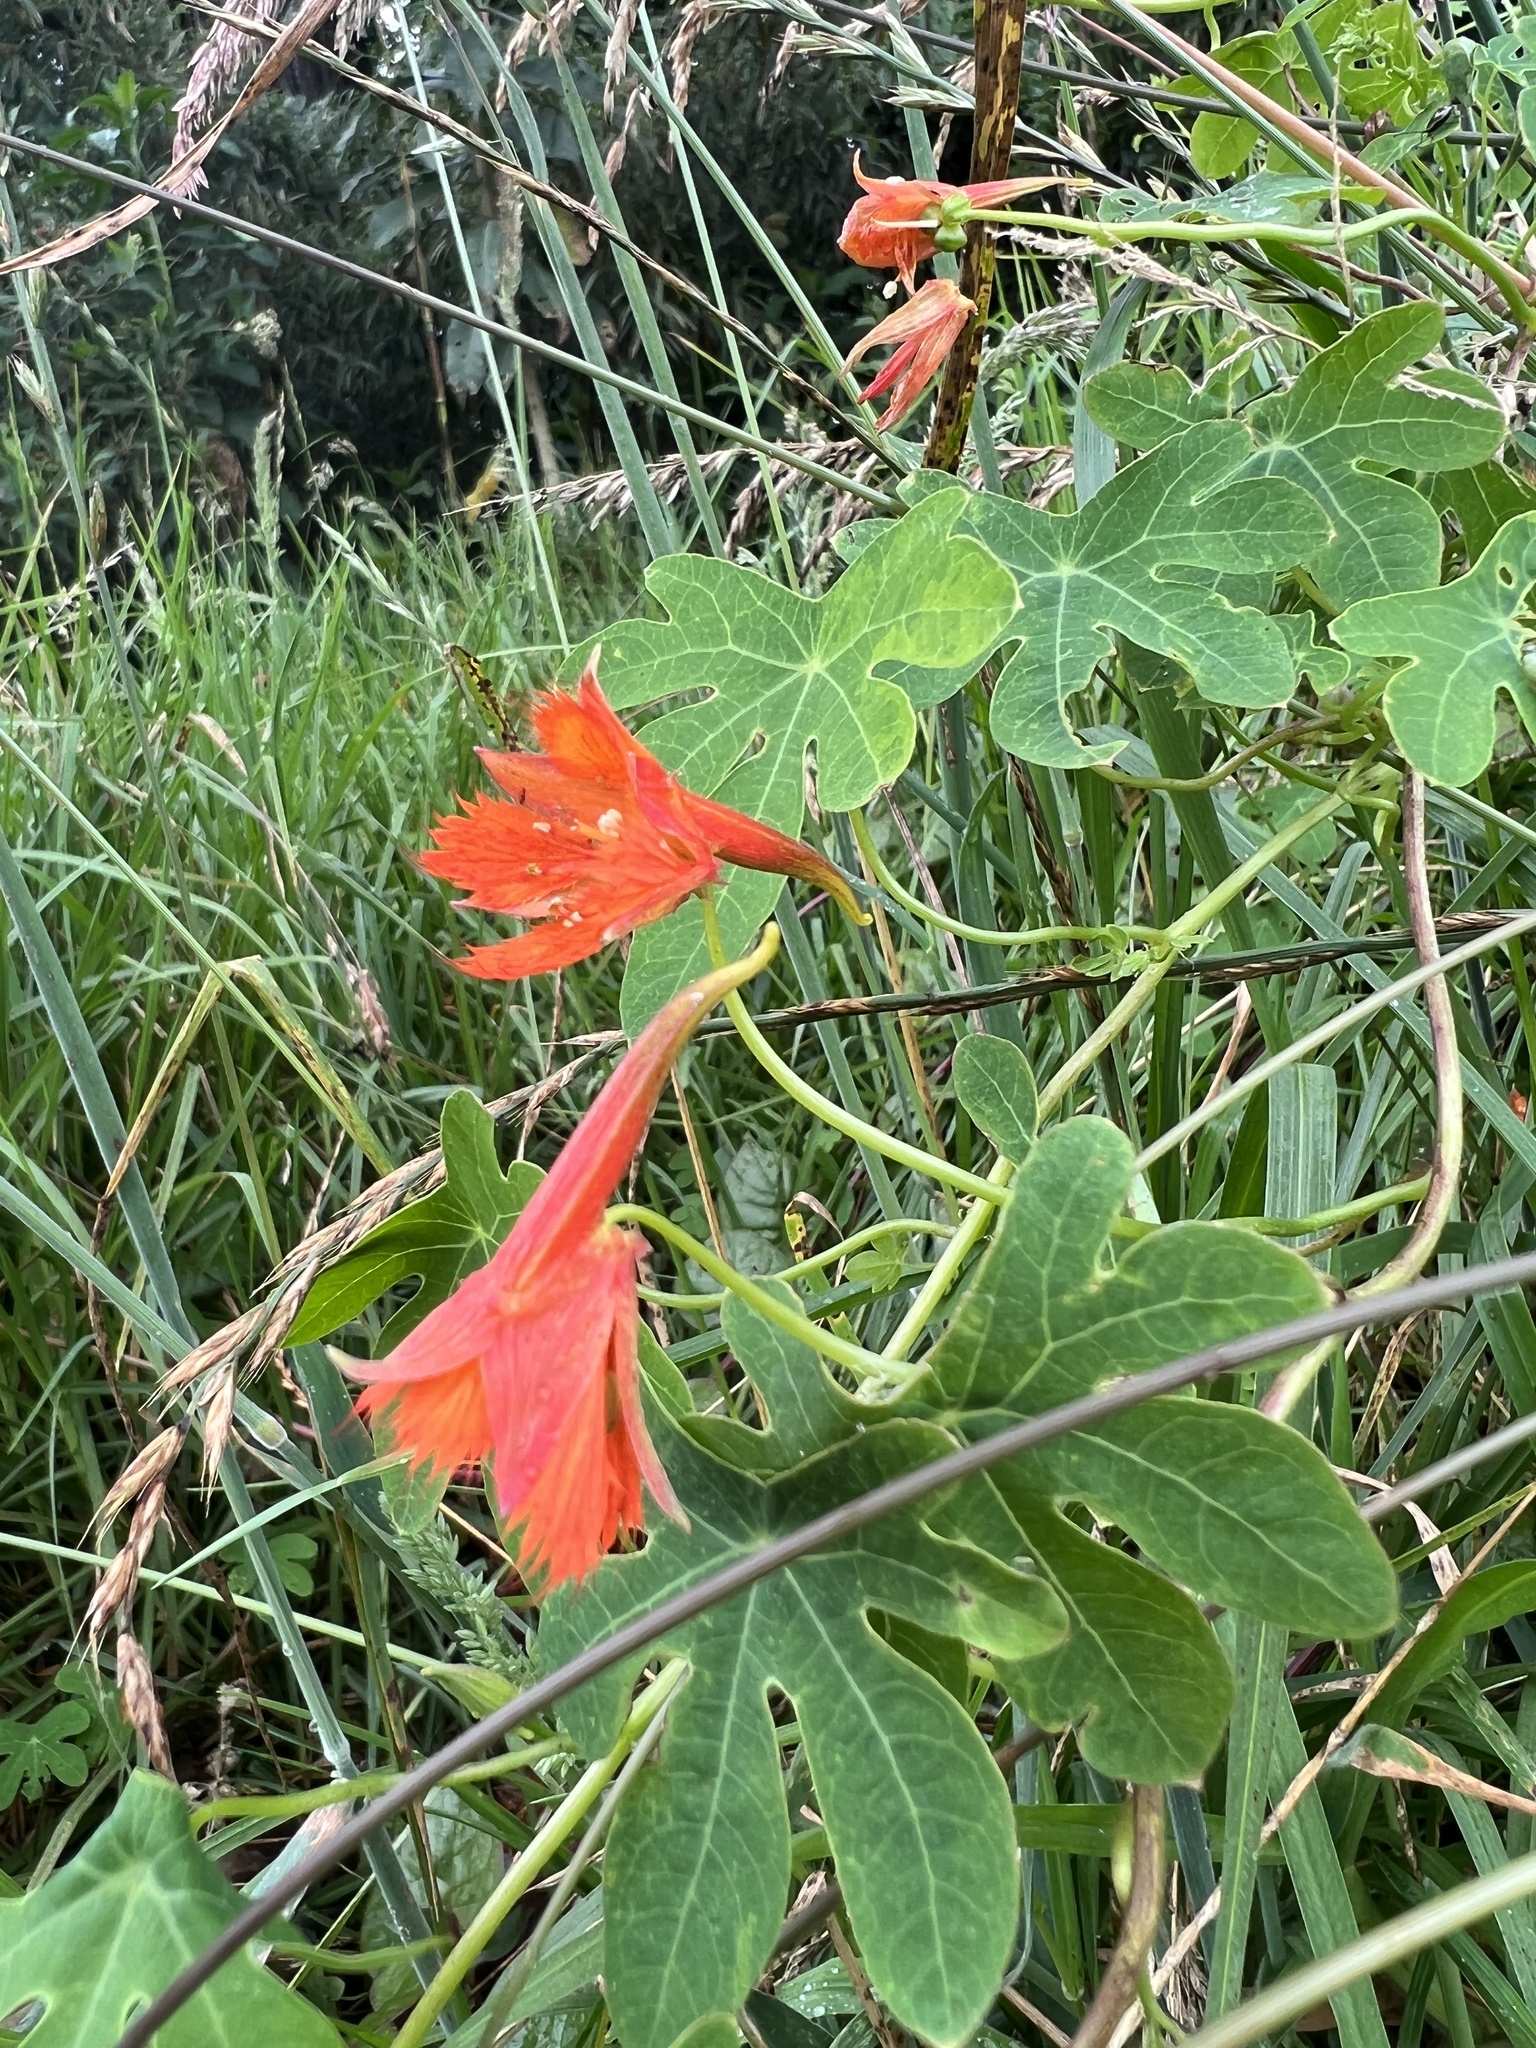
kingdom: Plantae
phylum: Tracheophyta
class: Magnoliopsida
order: Brassicales
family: Tropaeolaceae
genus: Tropaeolum
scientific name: Tropaeolum smithii
